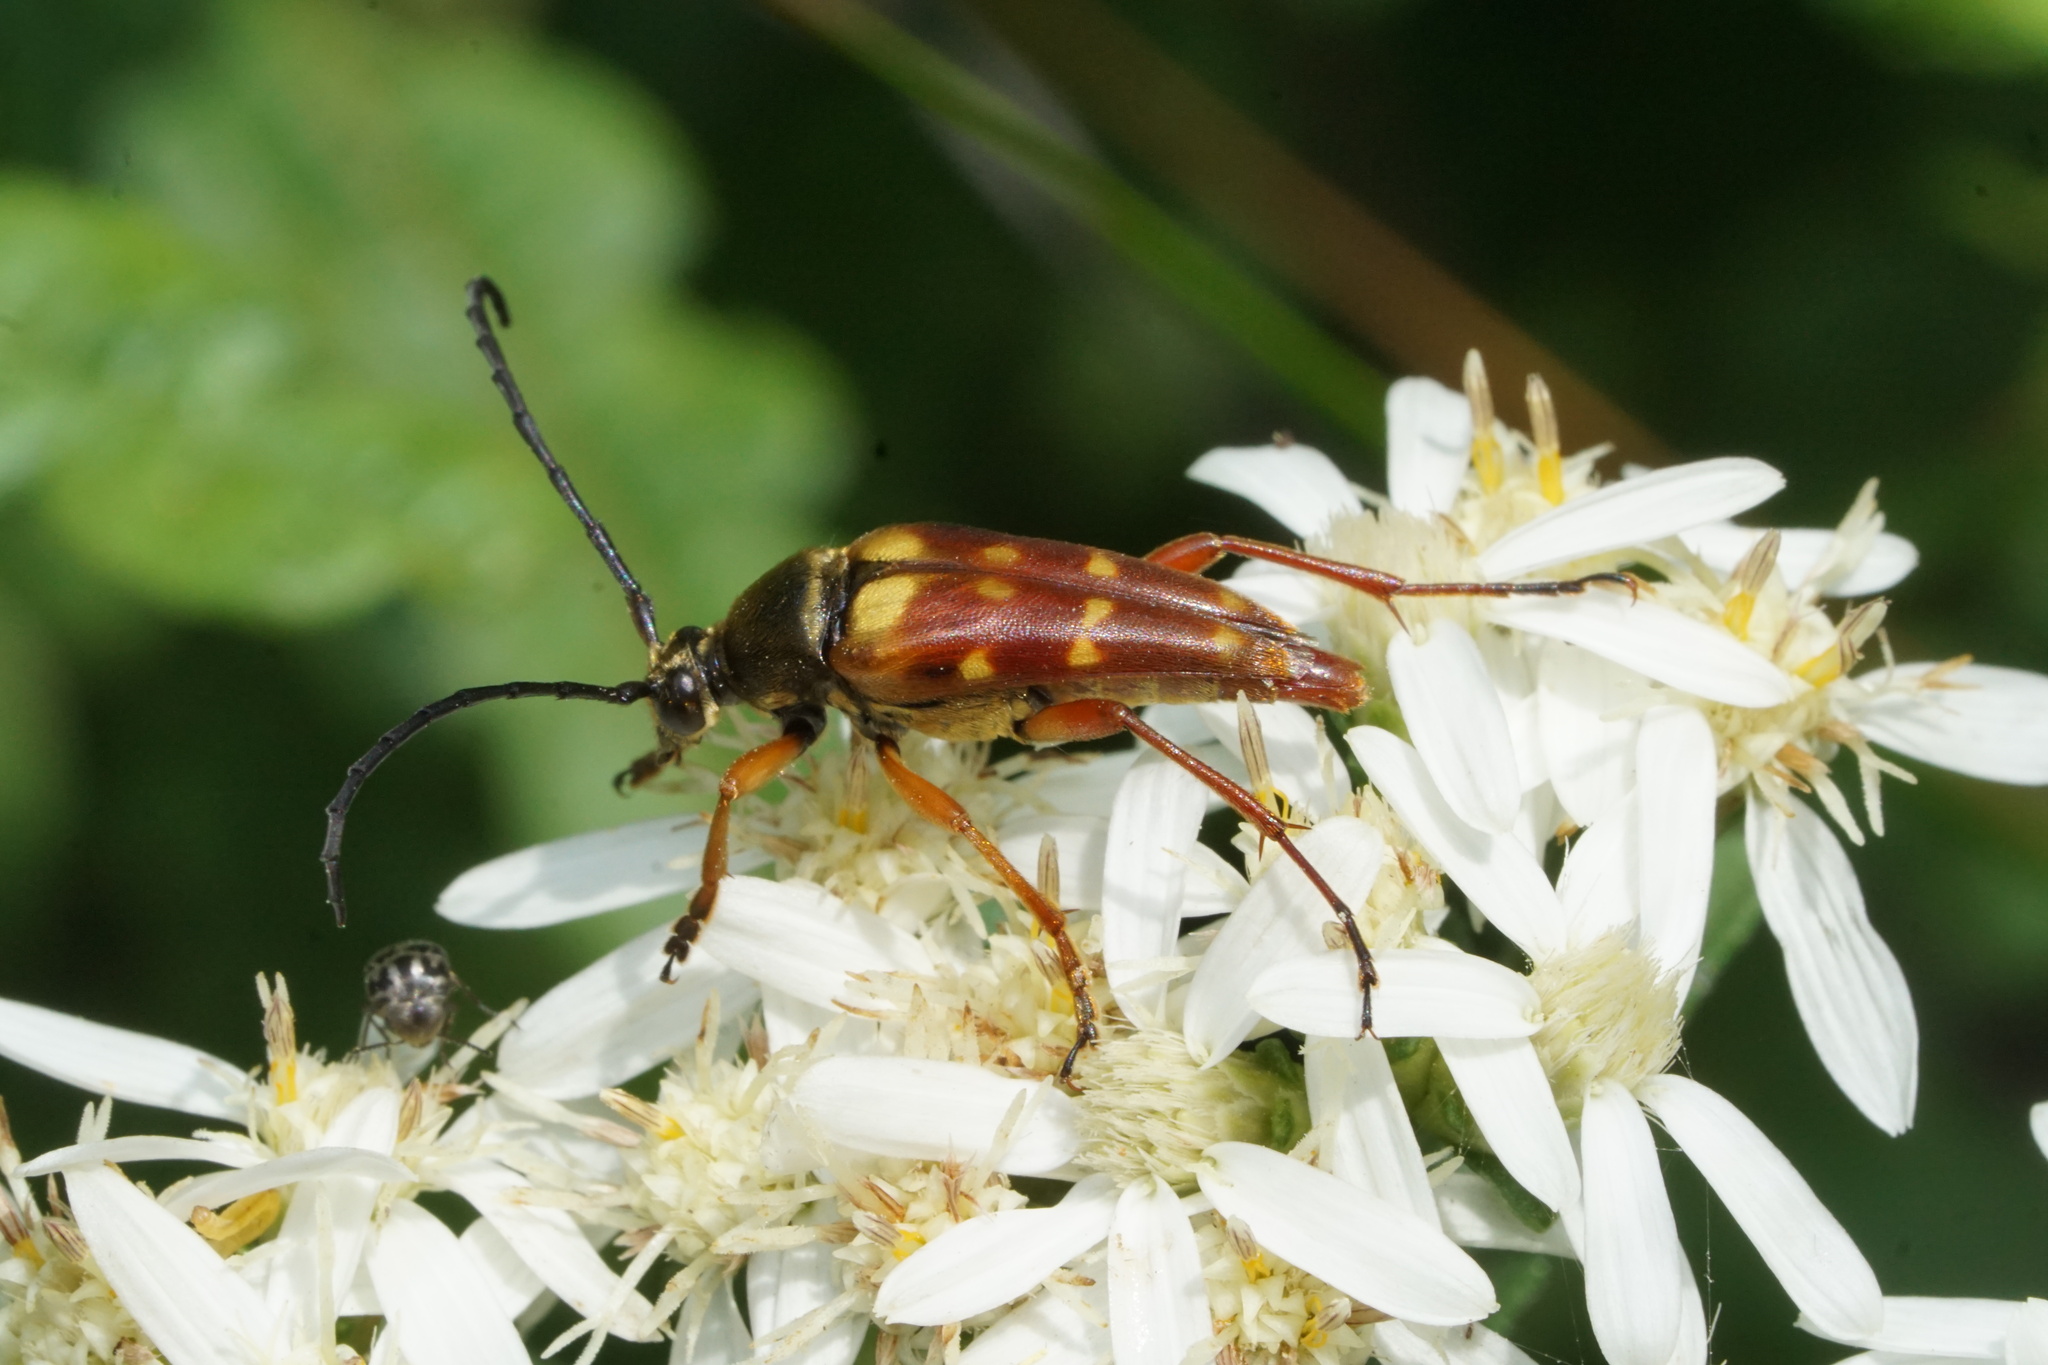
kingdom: Animalia
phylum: Arthropoda
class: Insecta
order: Coleoptera
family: Cerambycidae
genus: Typocerus
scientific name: Typocerus velutinus
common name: Banded longhorn beetle
